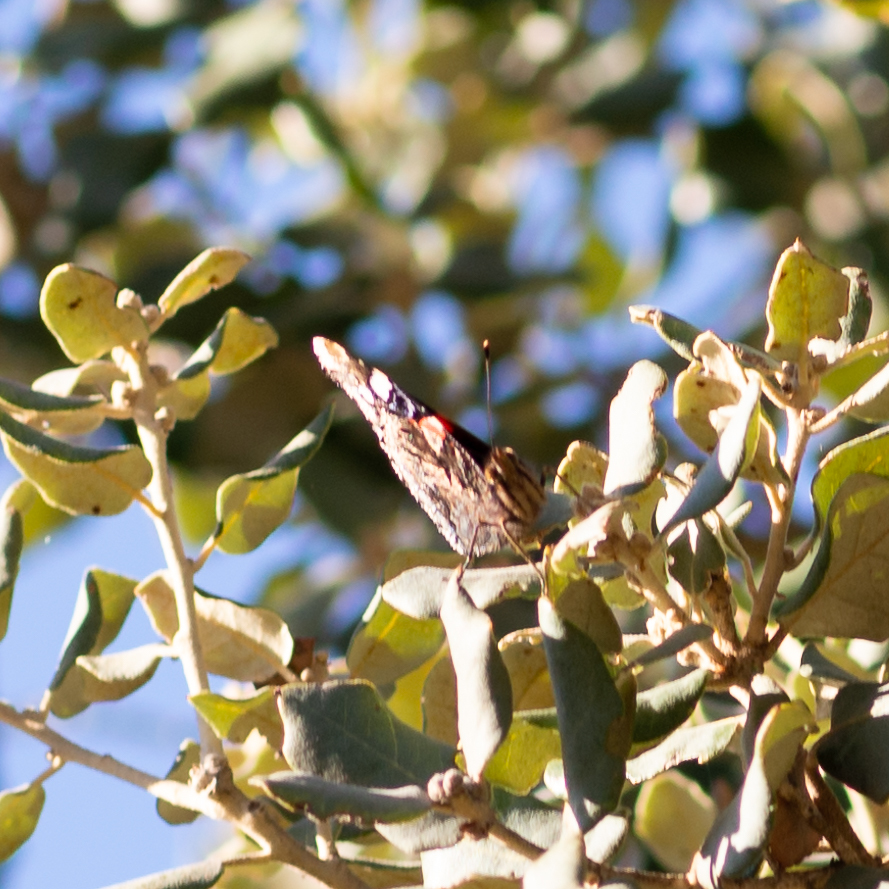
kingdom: Animalia
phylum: Arthropoda
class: Insecta
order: Lepidoptera
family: Nymphalidae
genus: Vanessa
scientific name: Vanessa atalanta
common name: Red admiral
